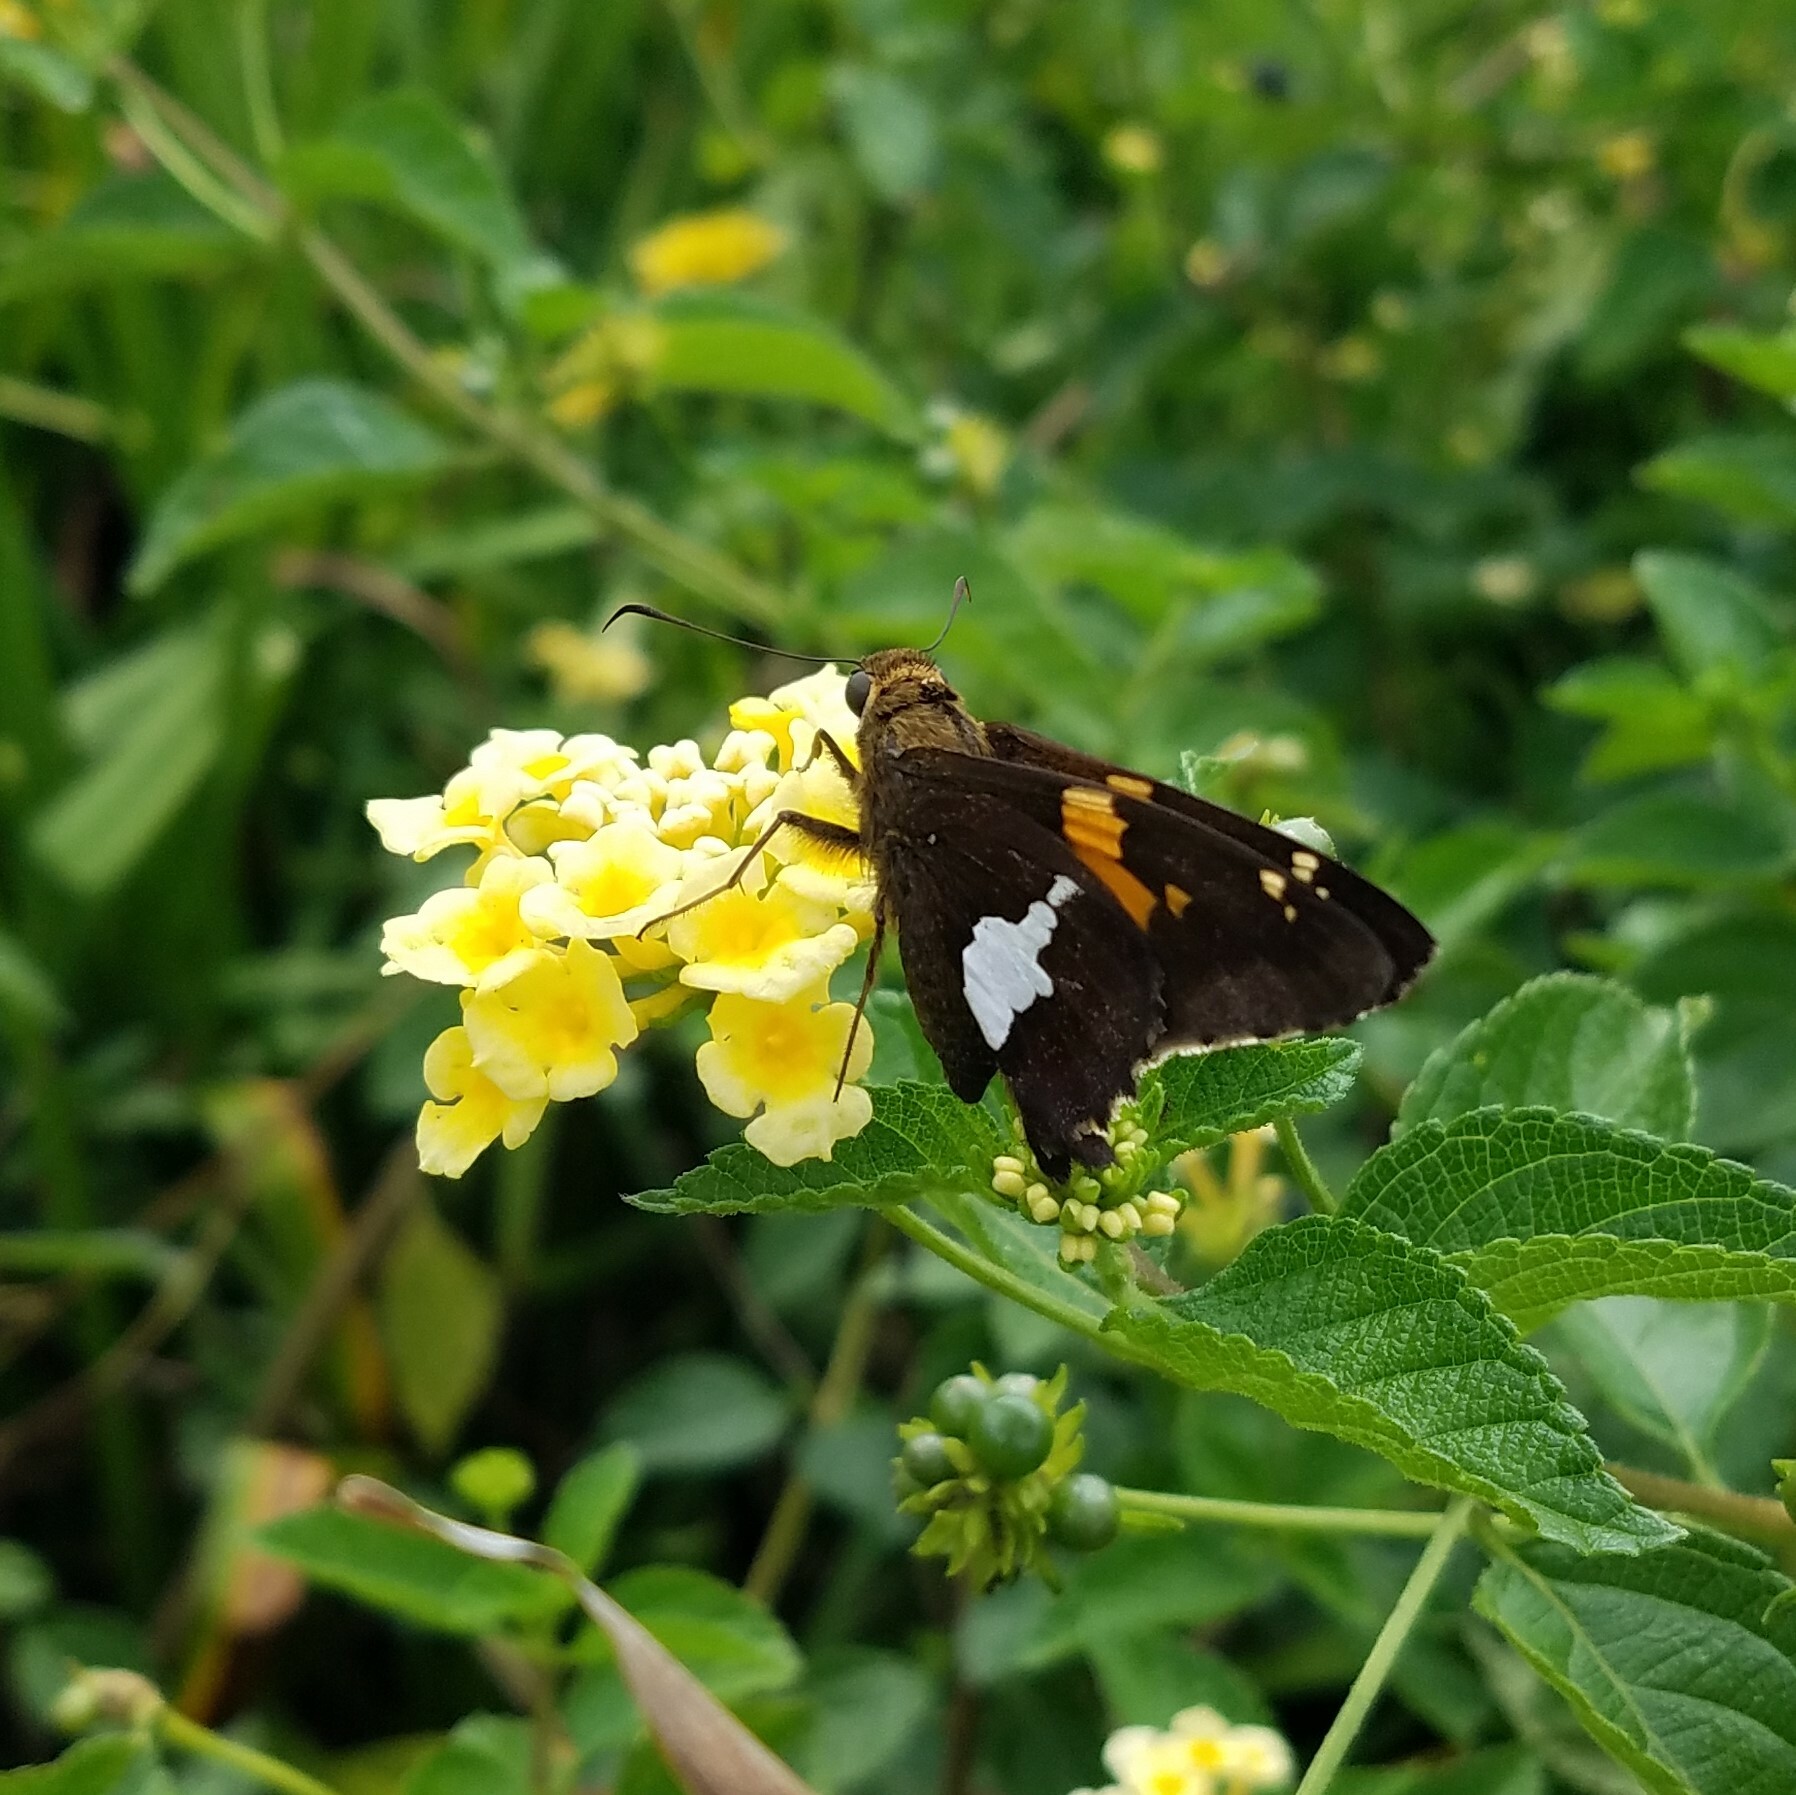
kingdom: Animalia
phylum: Arthropoda
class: Insecta
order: Lepidoptera
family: Hesperiidae
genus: Epargyreus
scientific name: Epargyreus clarus
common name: Silver-spotted skipper
